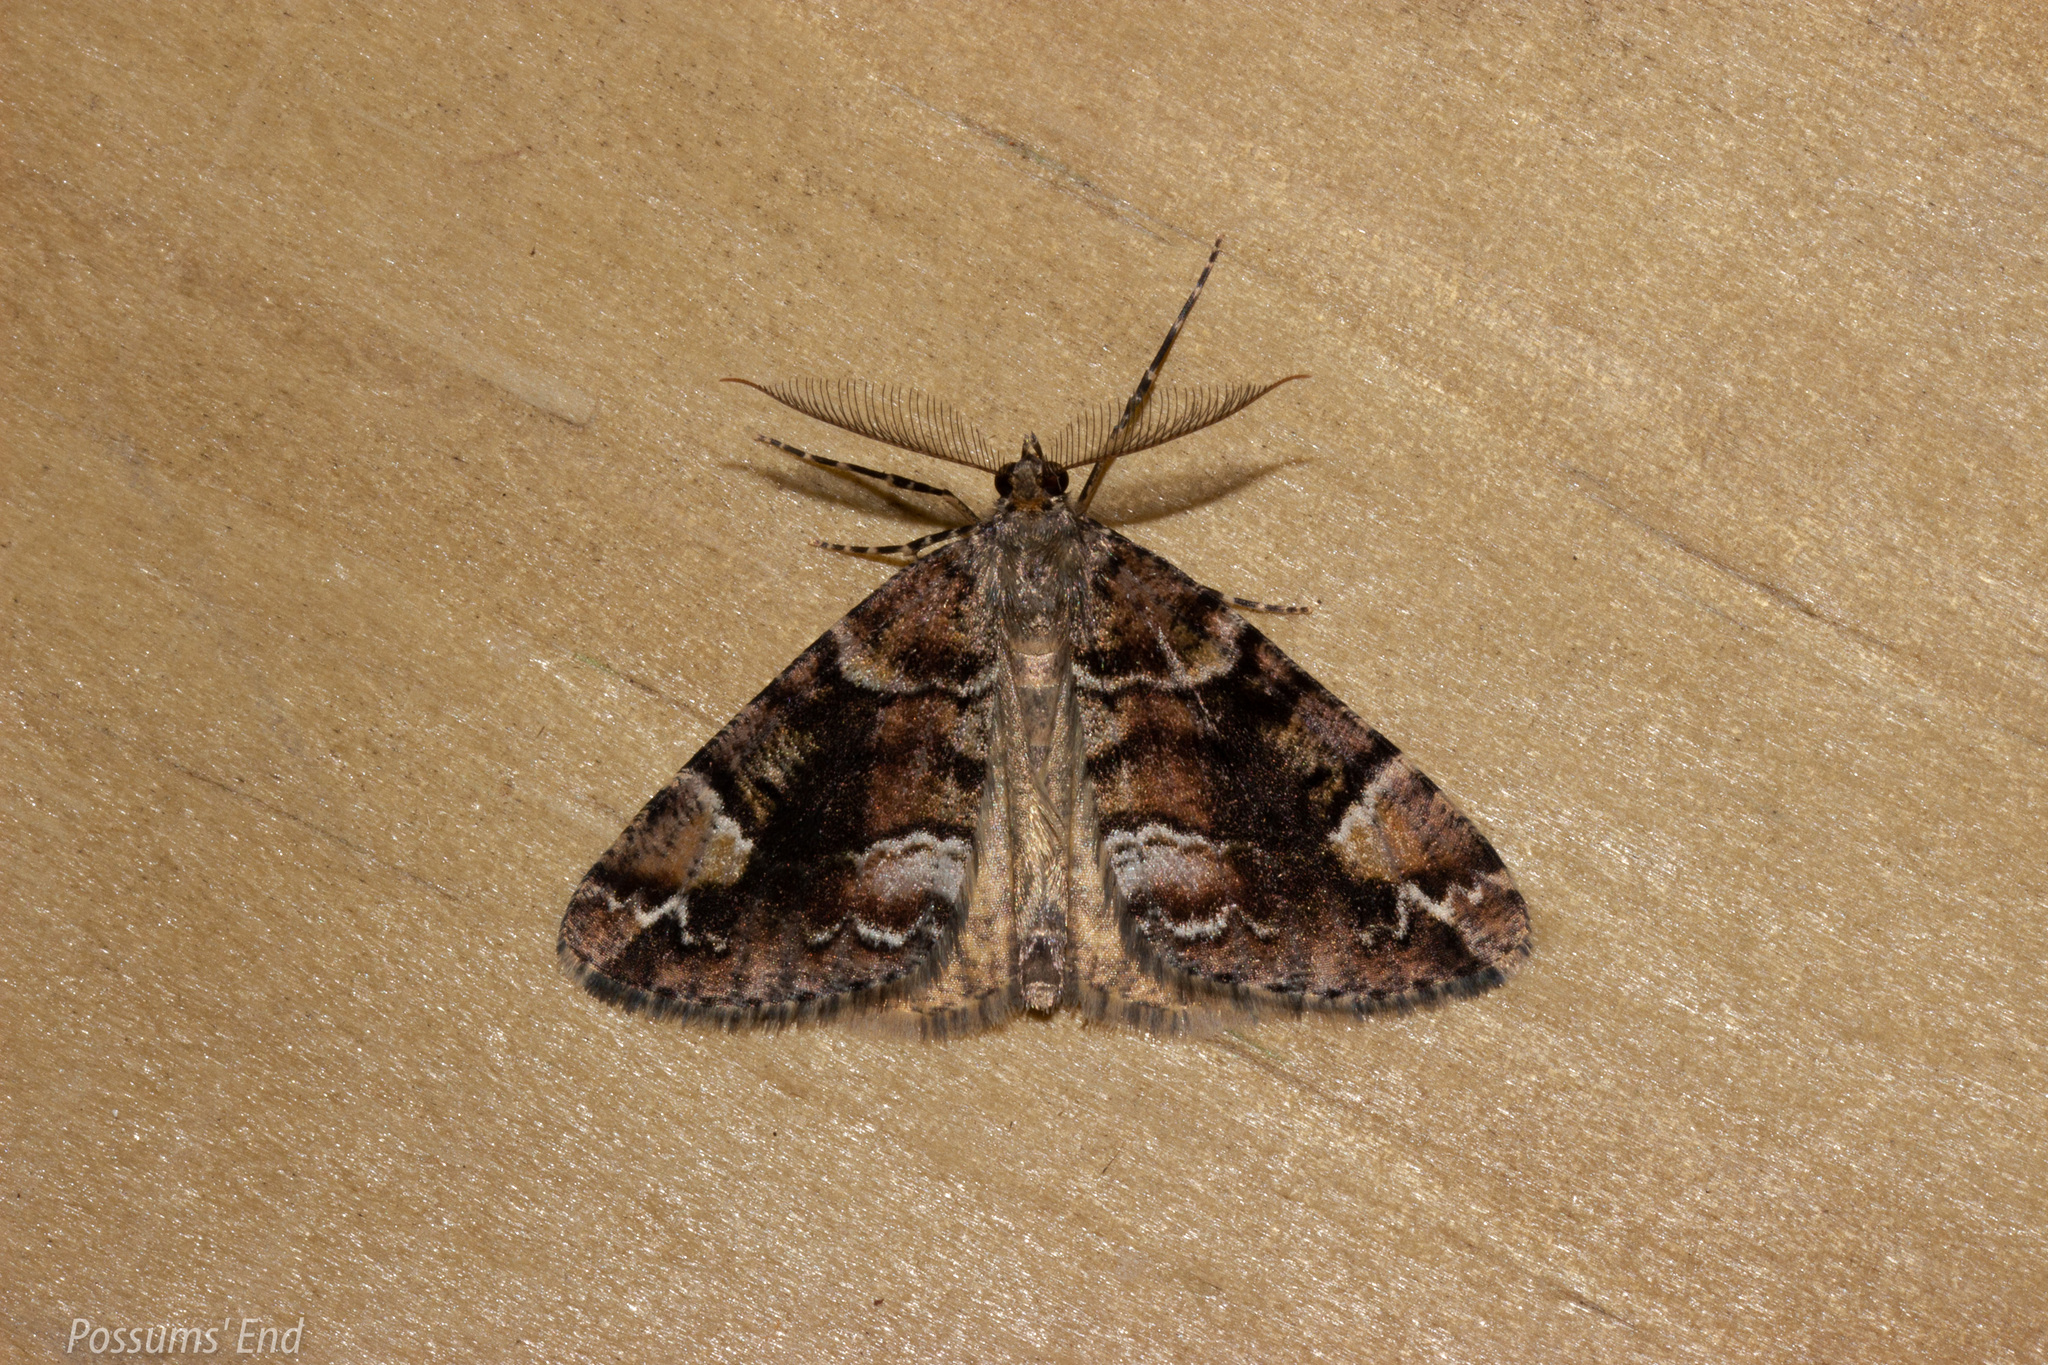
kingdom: Animalia
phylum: Arthropoda
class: Insecta
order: Lepidoptera
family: Geometridae
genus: Pseudocoremia
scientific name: Pseudocoremia productata
